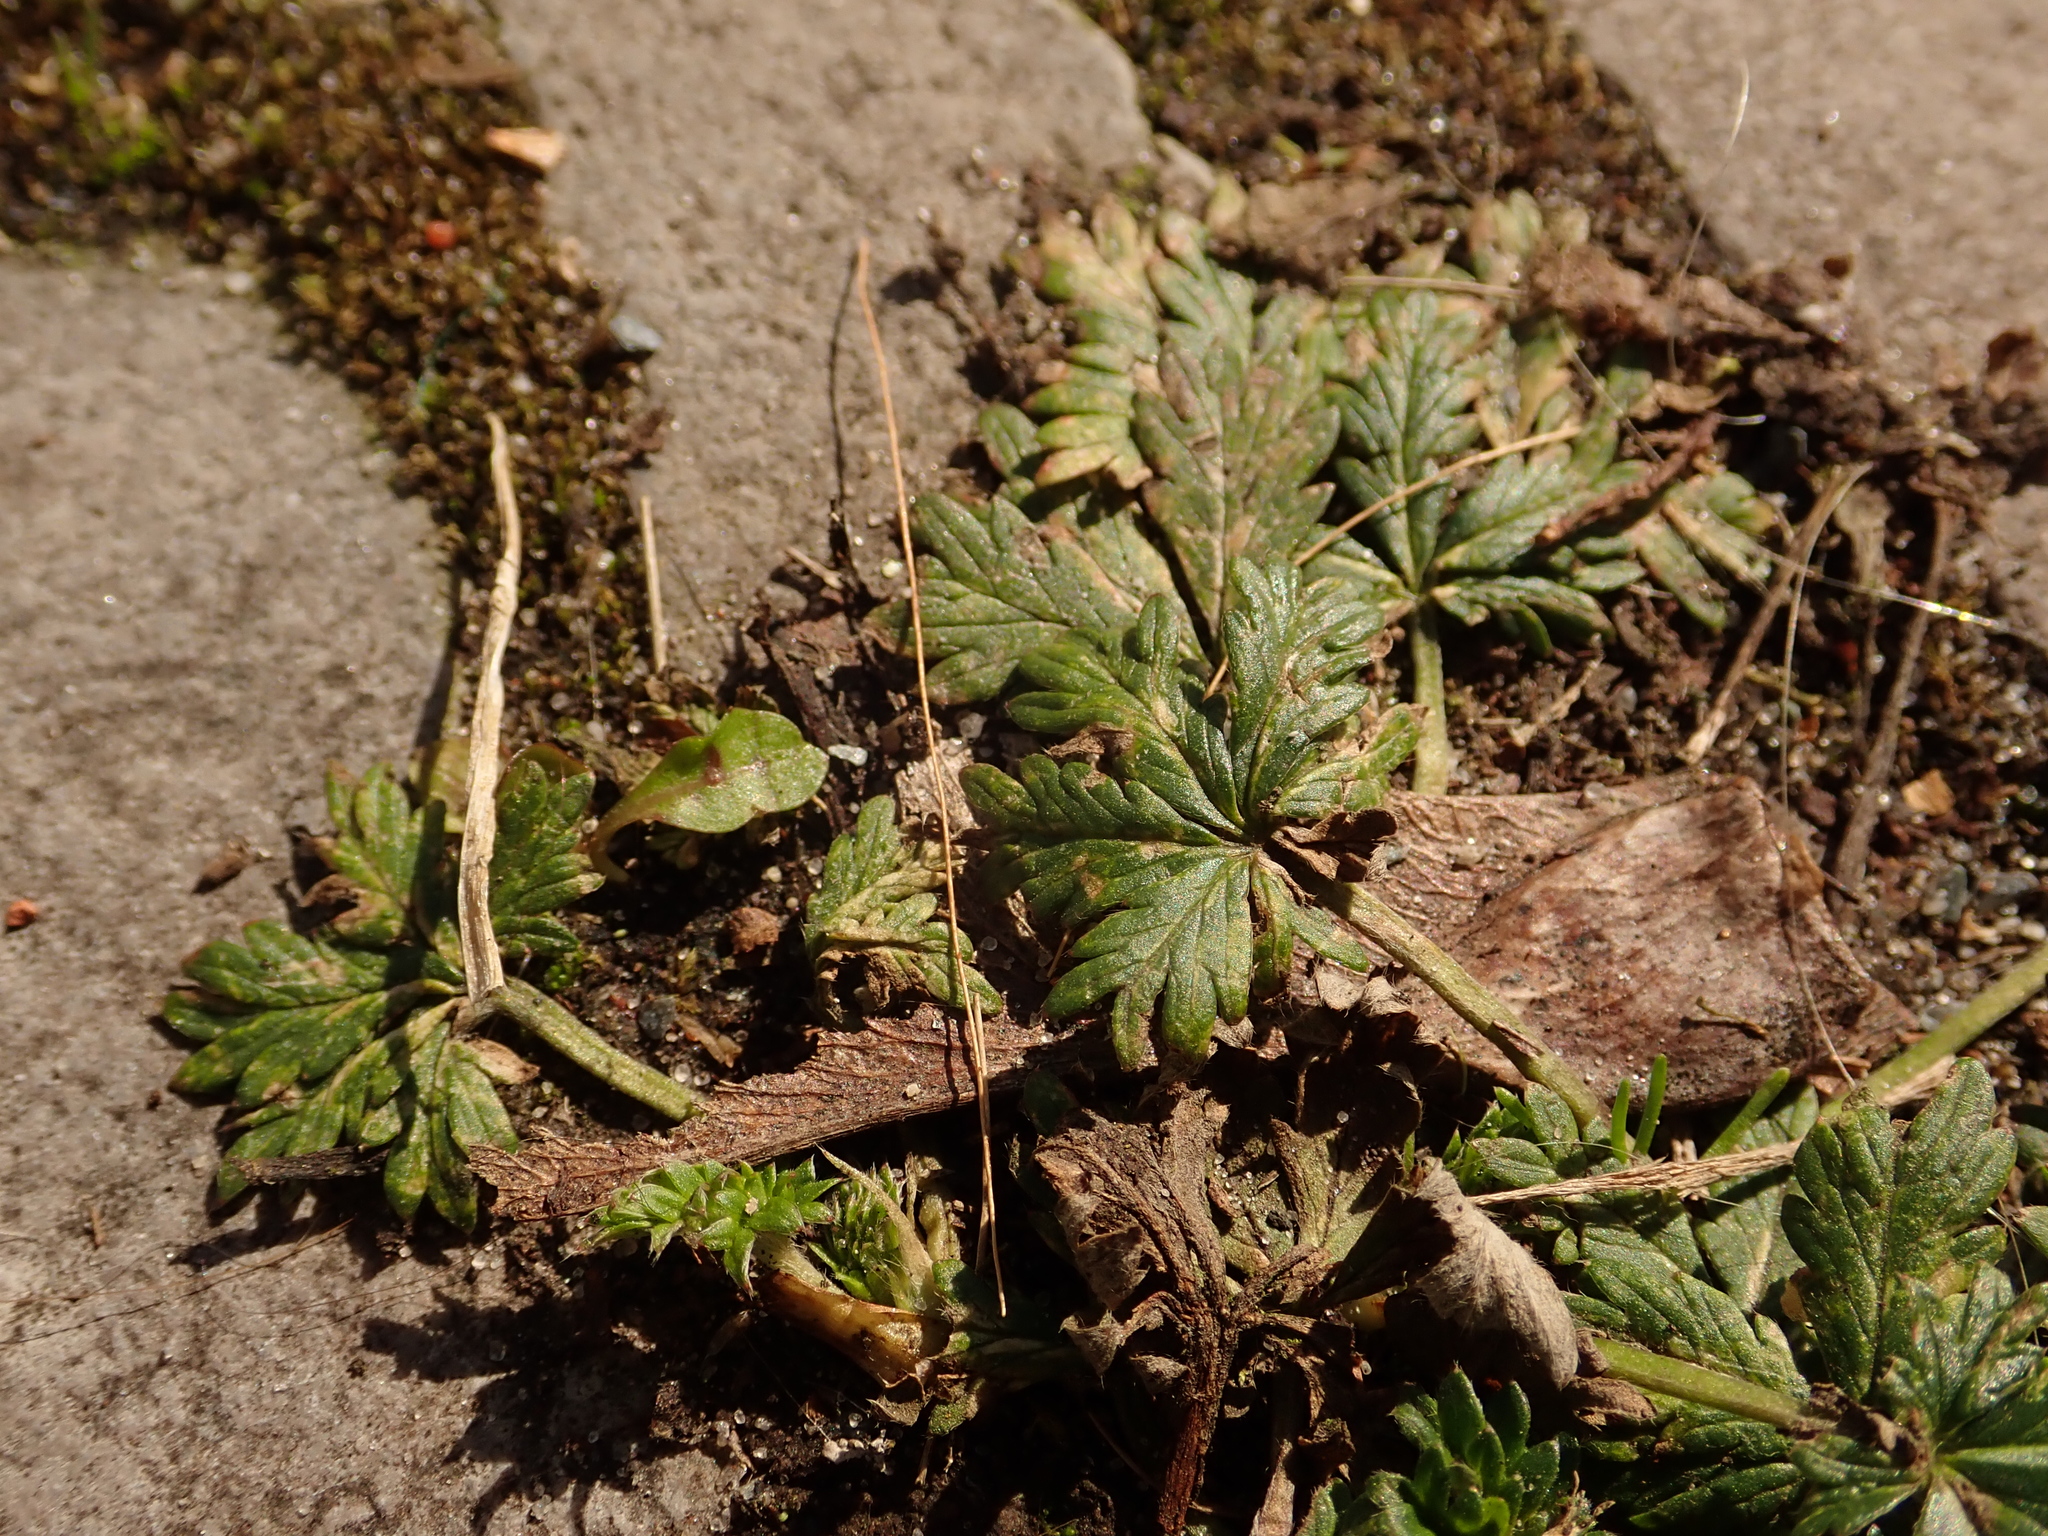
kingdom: Plantae
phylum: Tracheophyta
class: Magnoliopsida
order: Rosales
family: Rosaceae
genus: Potentilla
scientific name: Potentilla argentea
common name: Hoary cinquefoil
